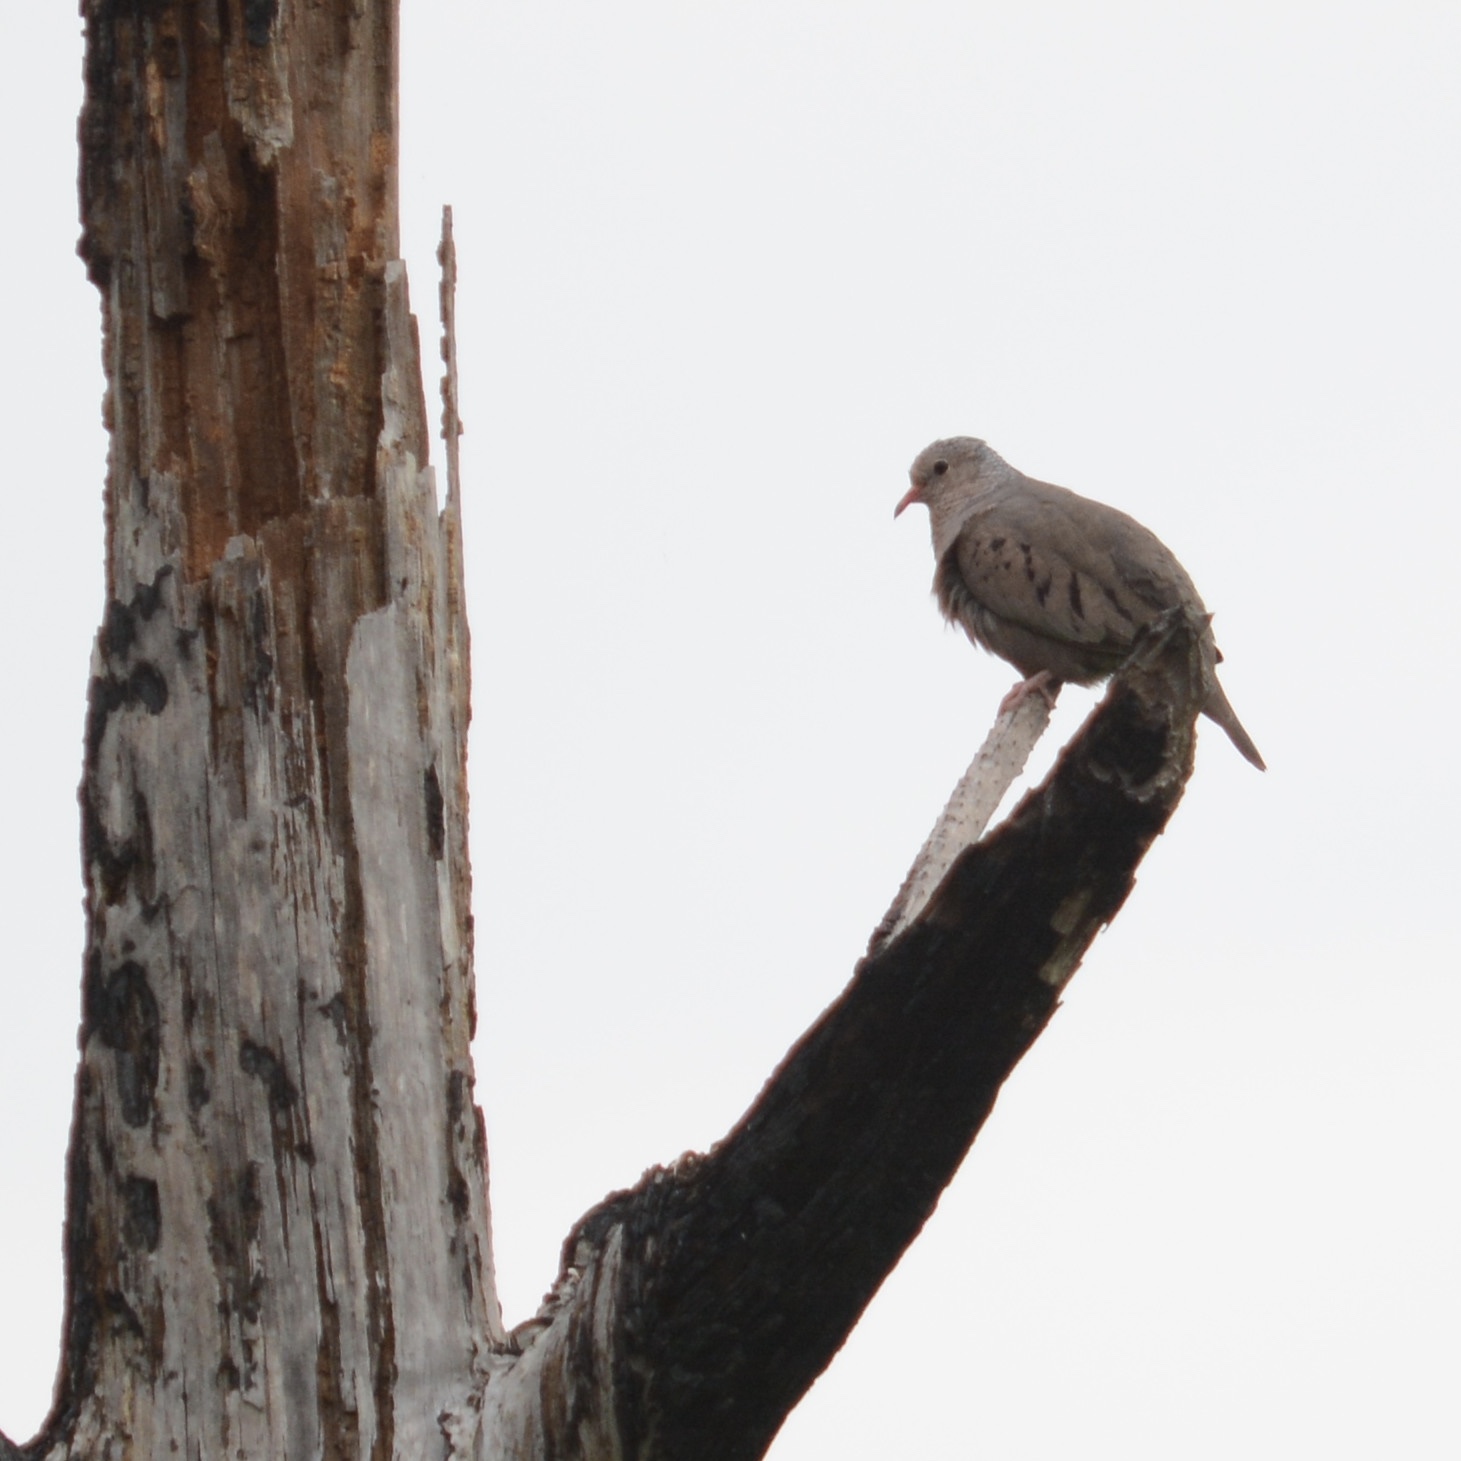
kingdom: Animalia
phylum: Chordata
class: Aves
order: Columbiformes
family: Columbidae
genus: Columbina
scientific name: Columbina passerina
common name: Common ground-dove
